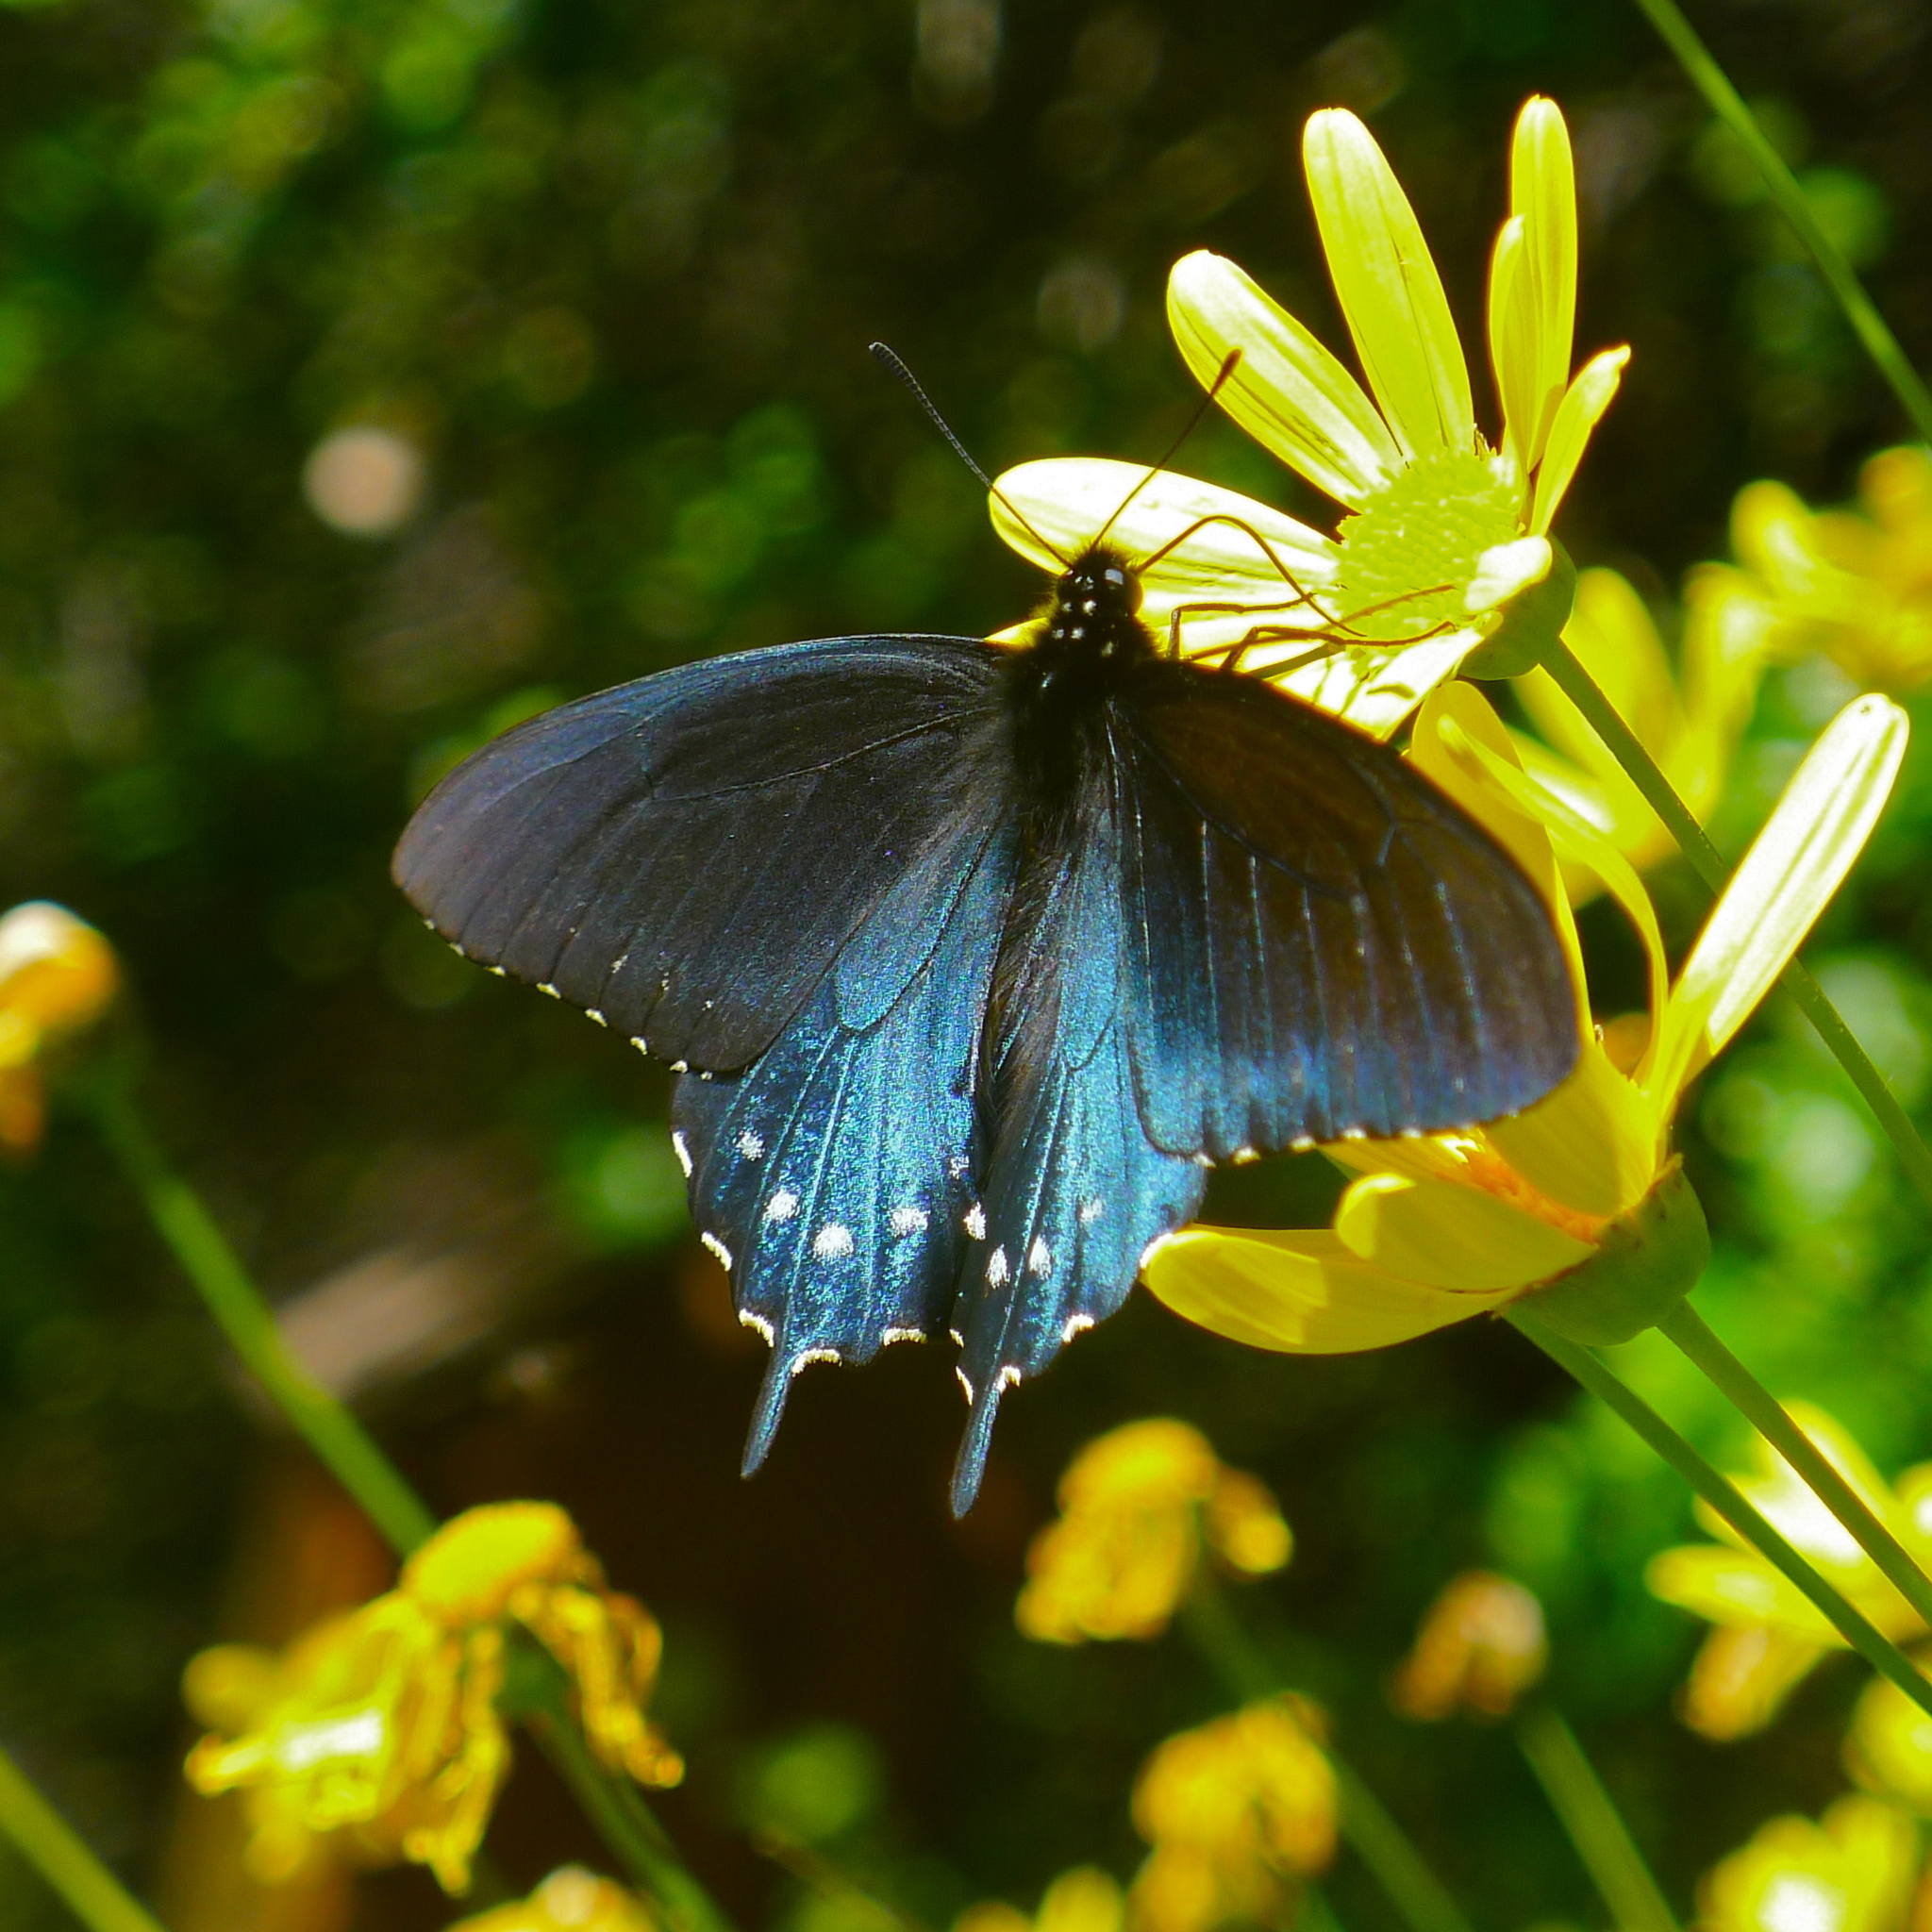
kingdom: Animalia
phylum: Arthropoda
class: Insecta
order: Lepidoptera
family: Papilionidae
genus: Battus
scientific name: Battus philenor
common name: Pipevine swallowtail
